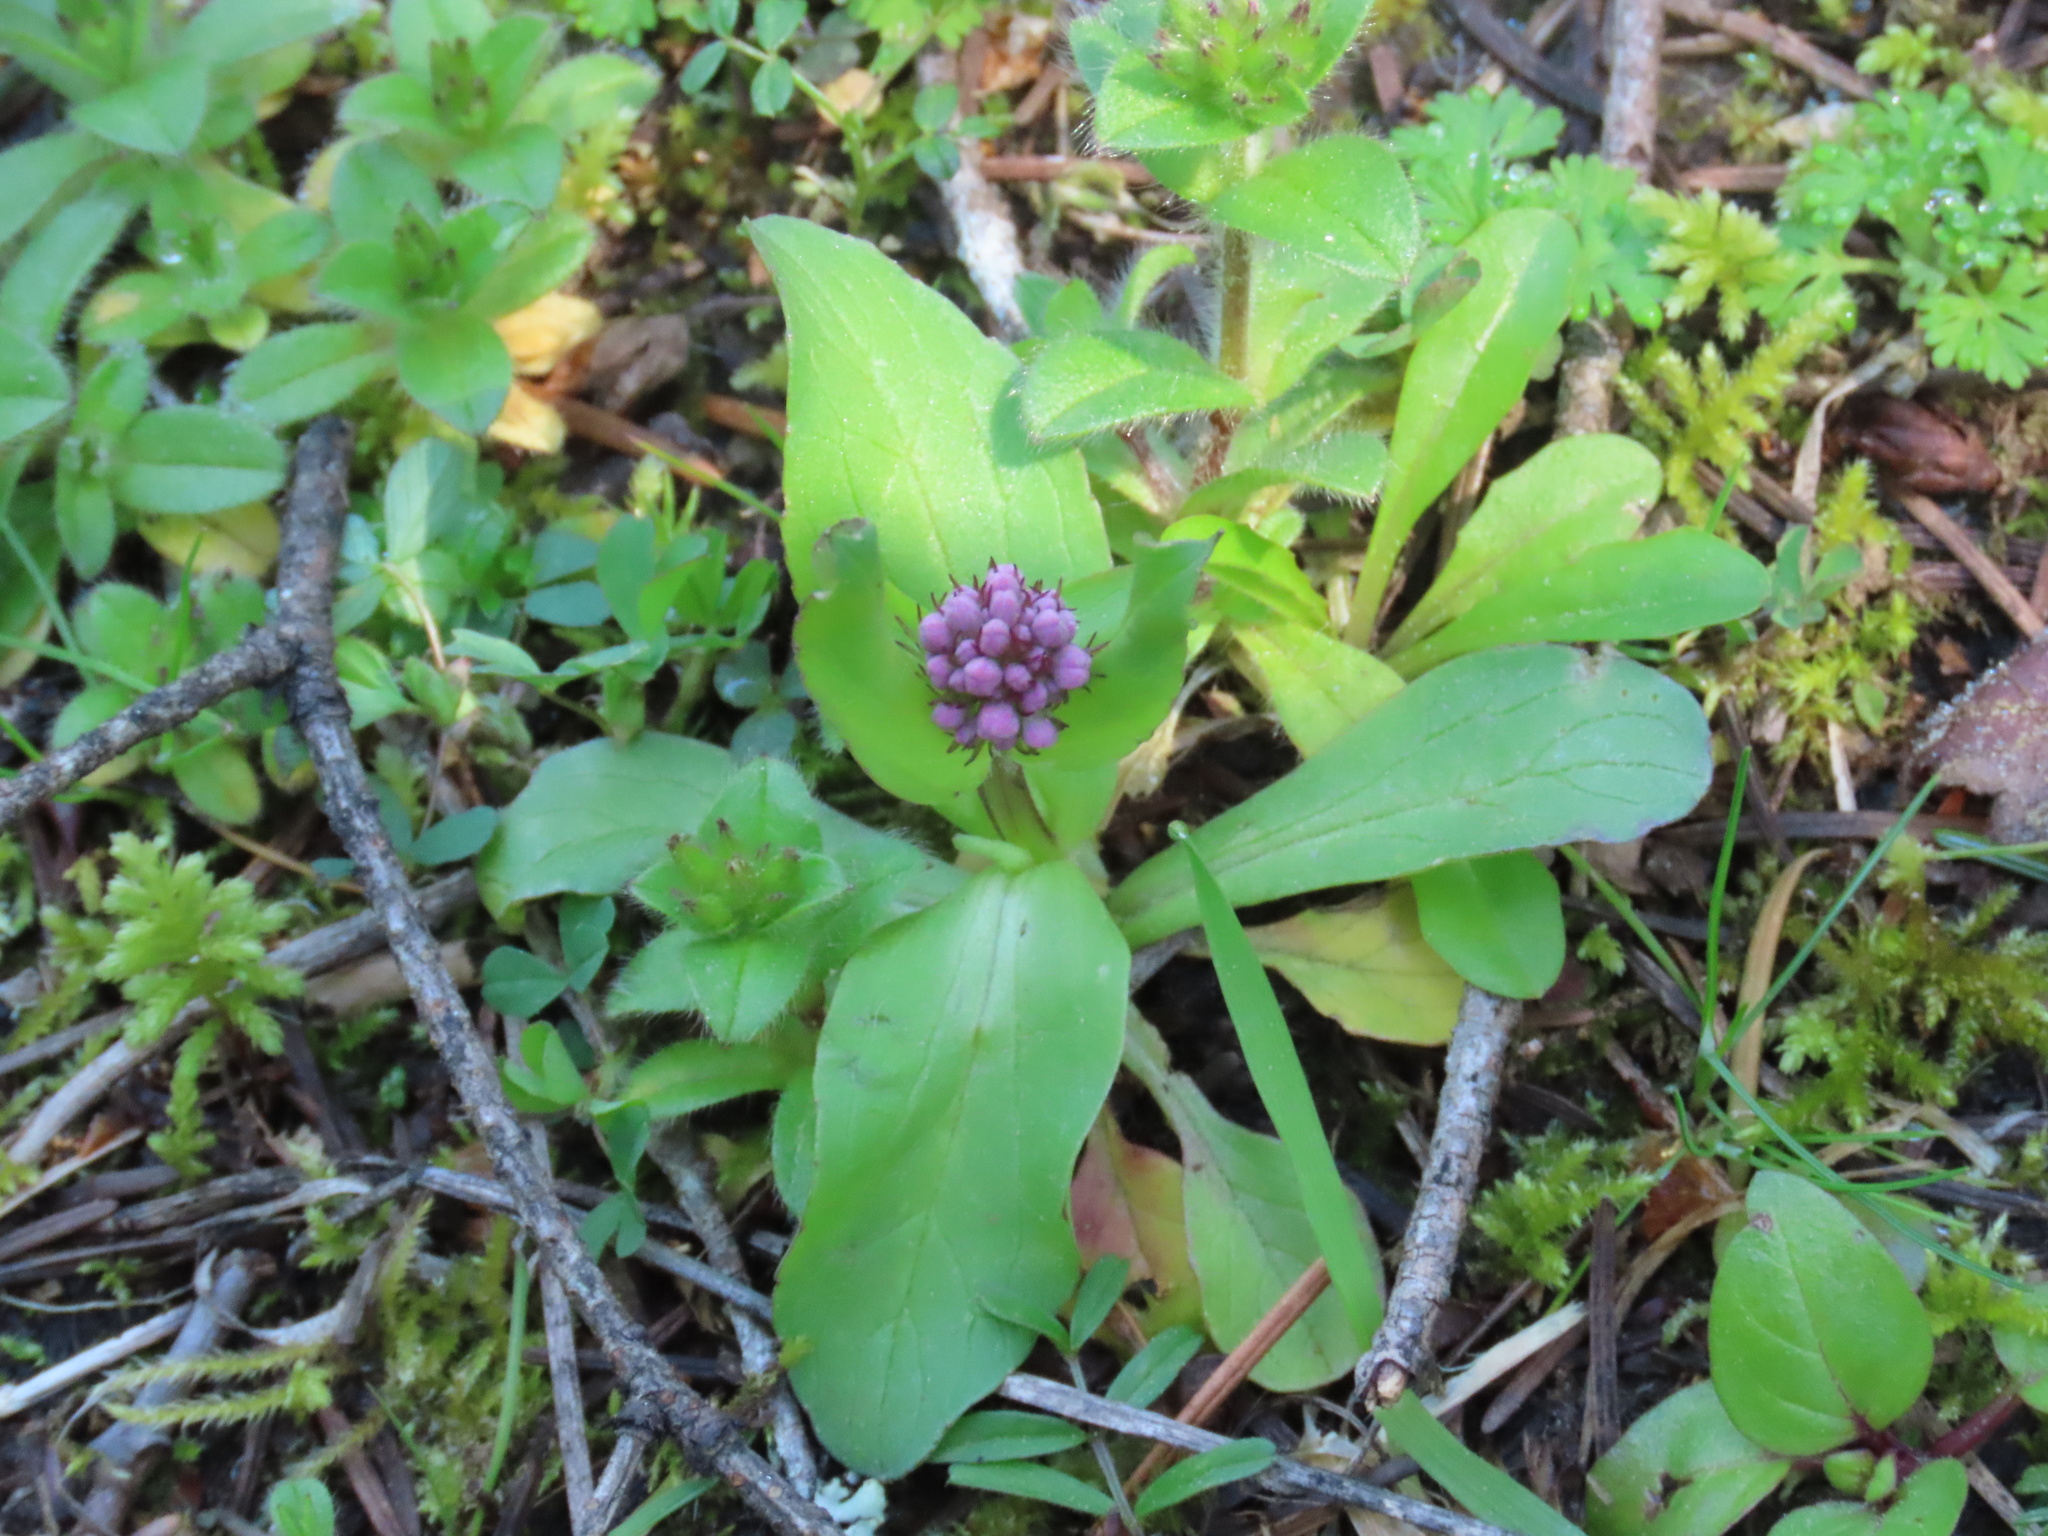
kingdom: Plantae
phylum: Tracheophyta
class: Magnoliopsida
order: Dipsacales
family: Caprifoliaceae
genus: Plectritis
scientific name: Plectritis congesta
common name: Pink plectritis
